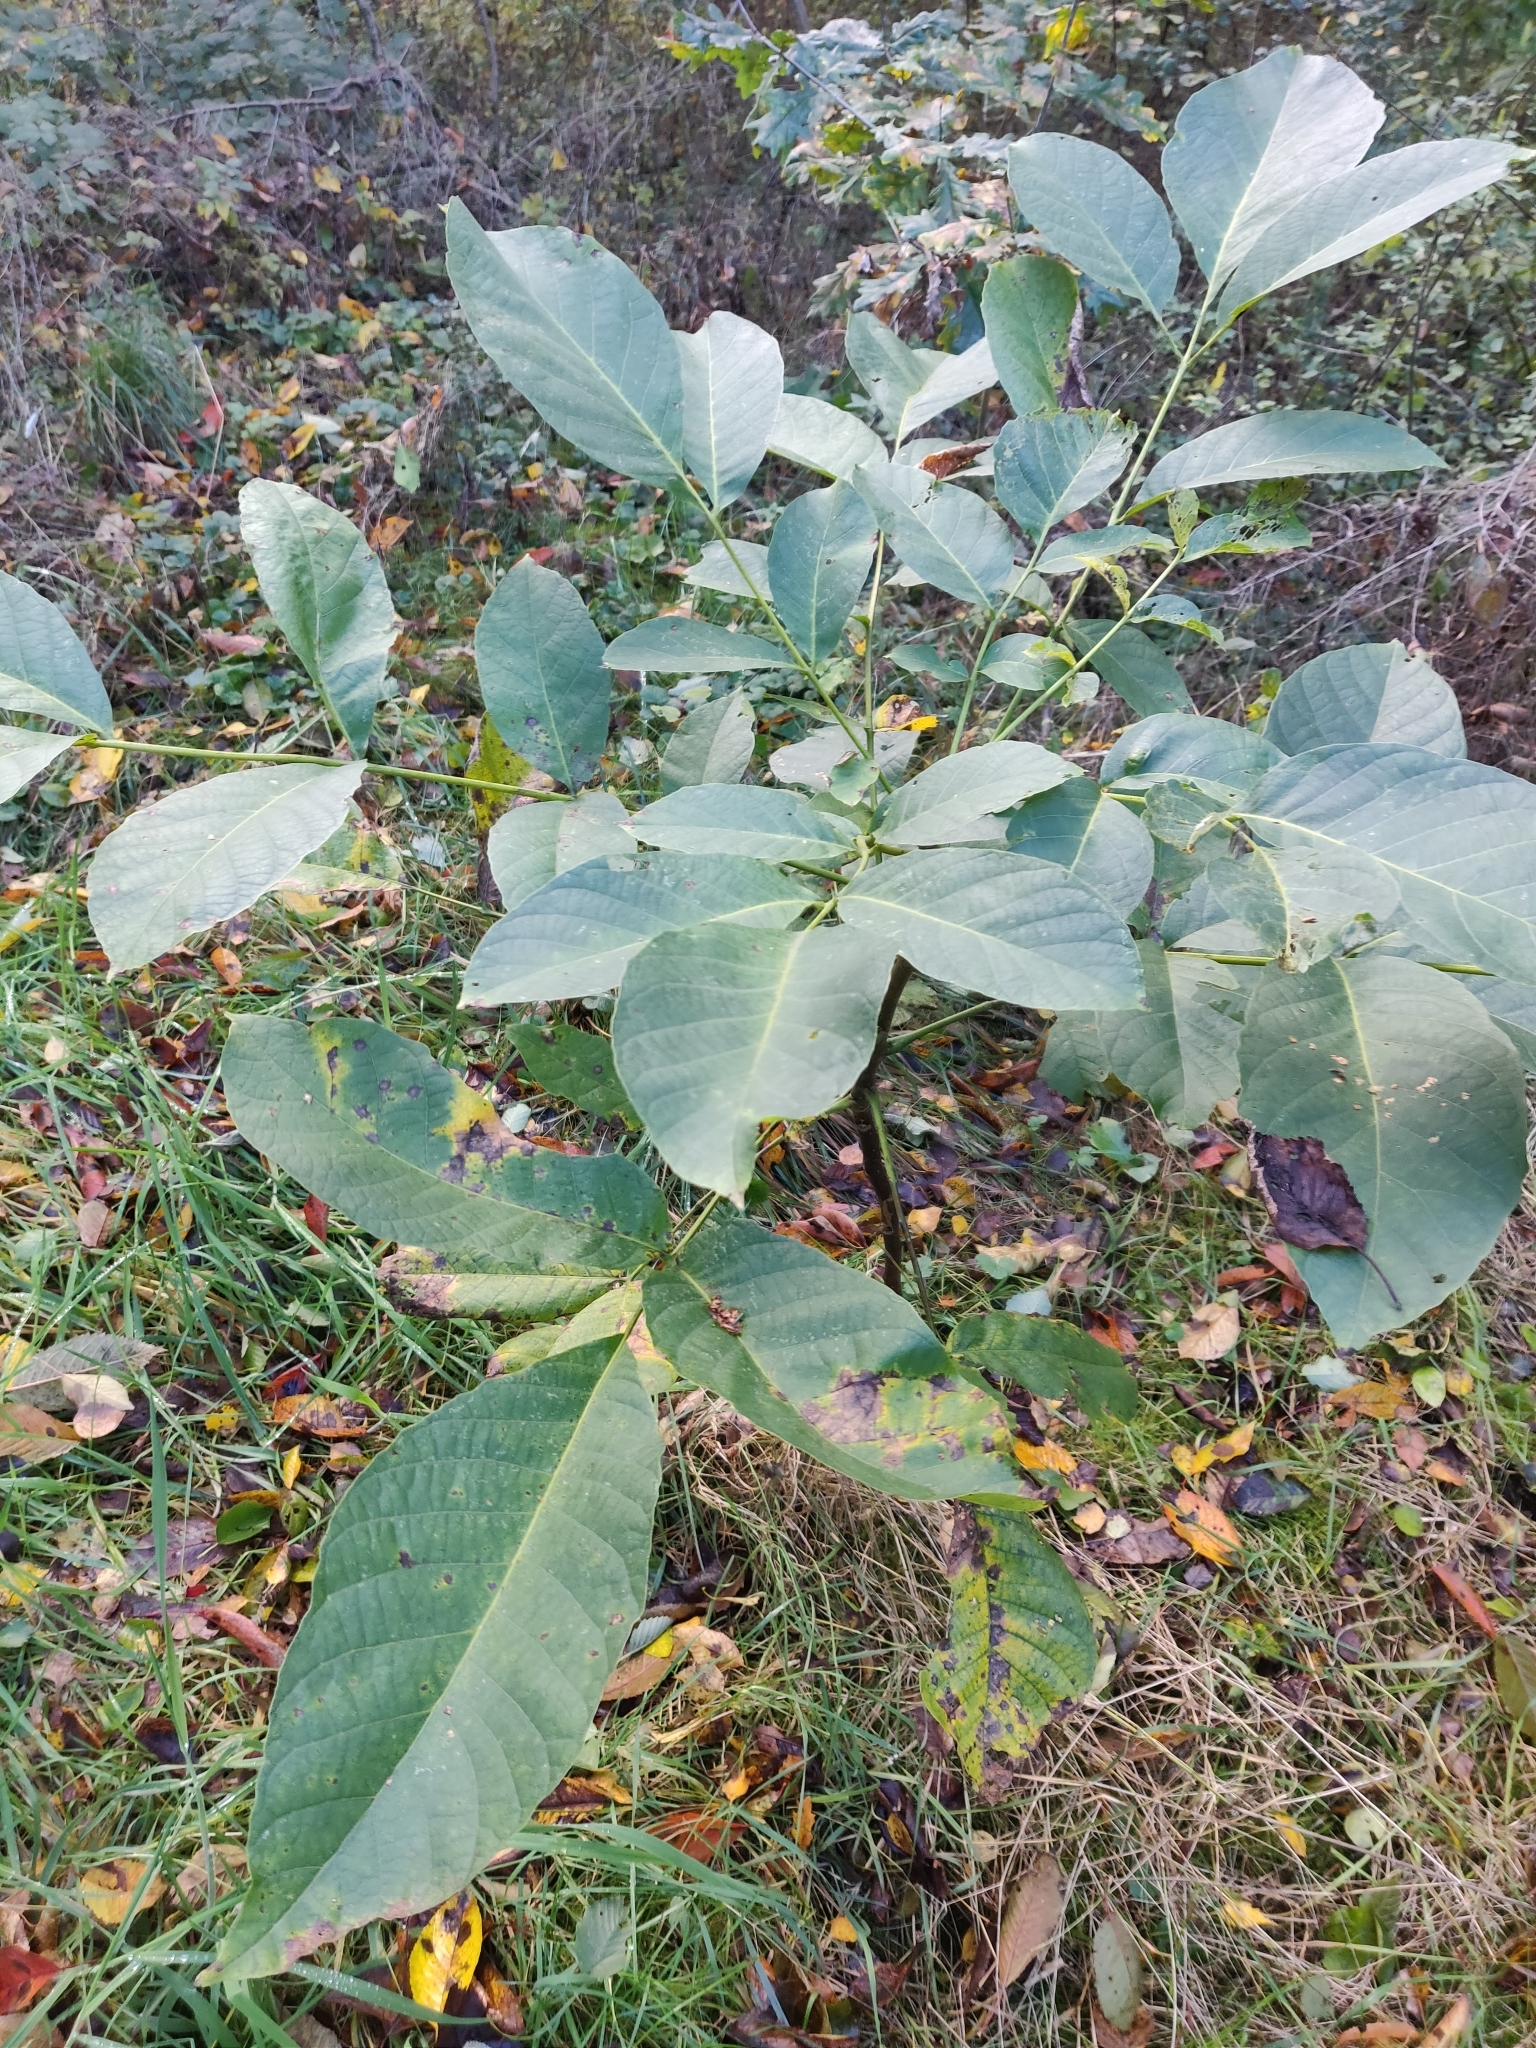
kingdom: Plantae
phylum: Tracheophyta
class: Magnoliopsida
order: Fagales
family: Juglandaceae
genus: Juglans
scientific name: Juglans regia
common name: Walnut
